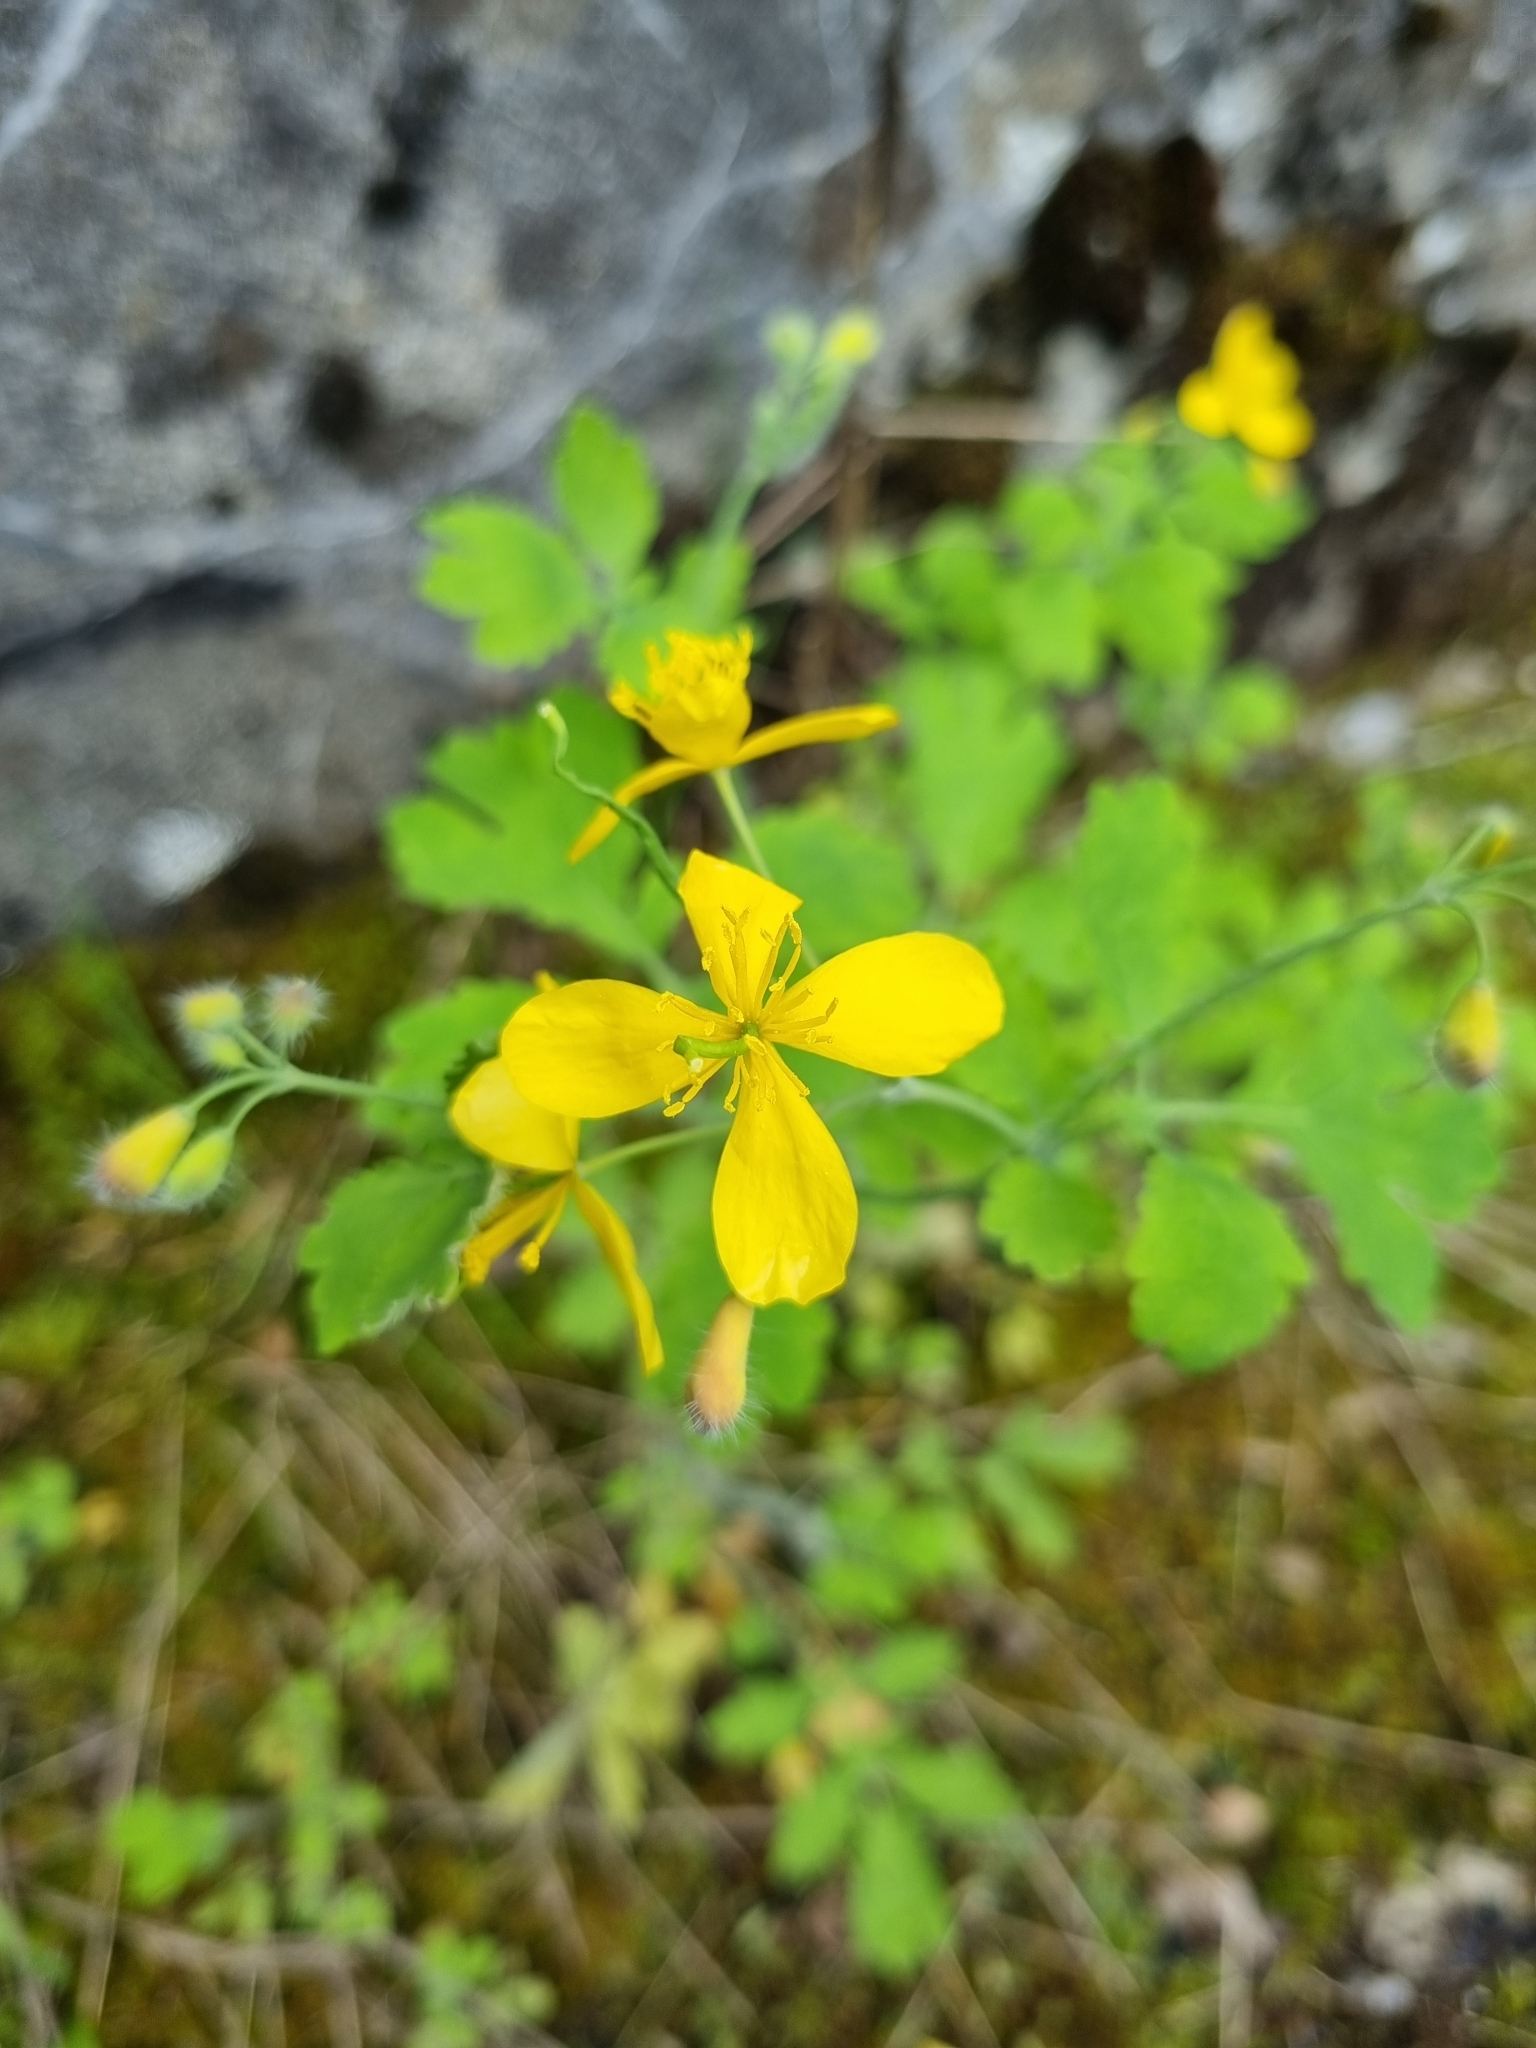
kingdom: Plantae
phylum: Tracheophyta
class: Magnoliopsida
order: Ranunculales
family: Papaveraceae
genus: Chelidonium
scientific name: Chelidonium majus
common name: Greater celandine
